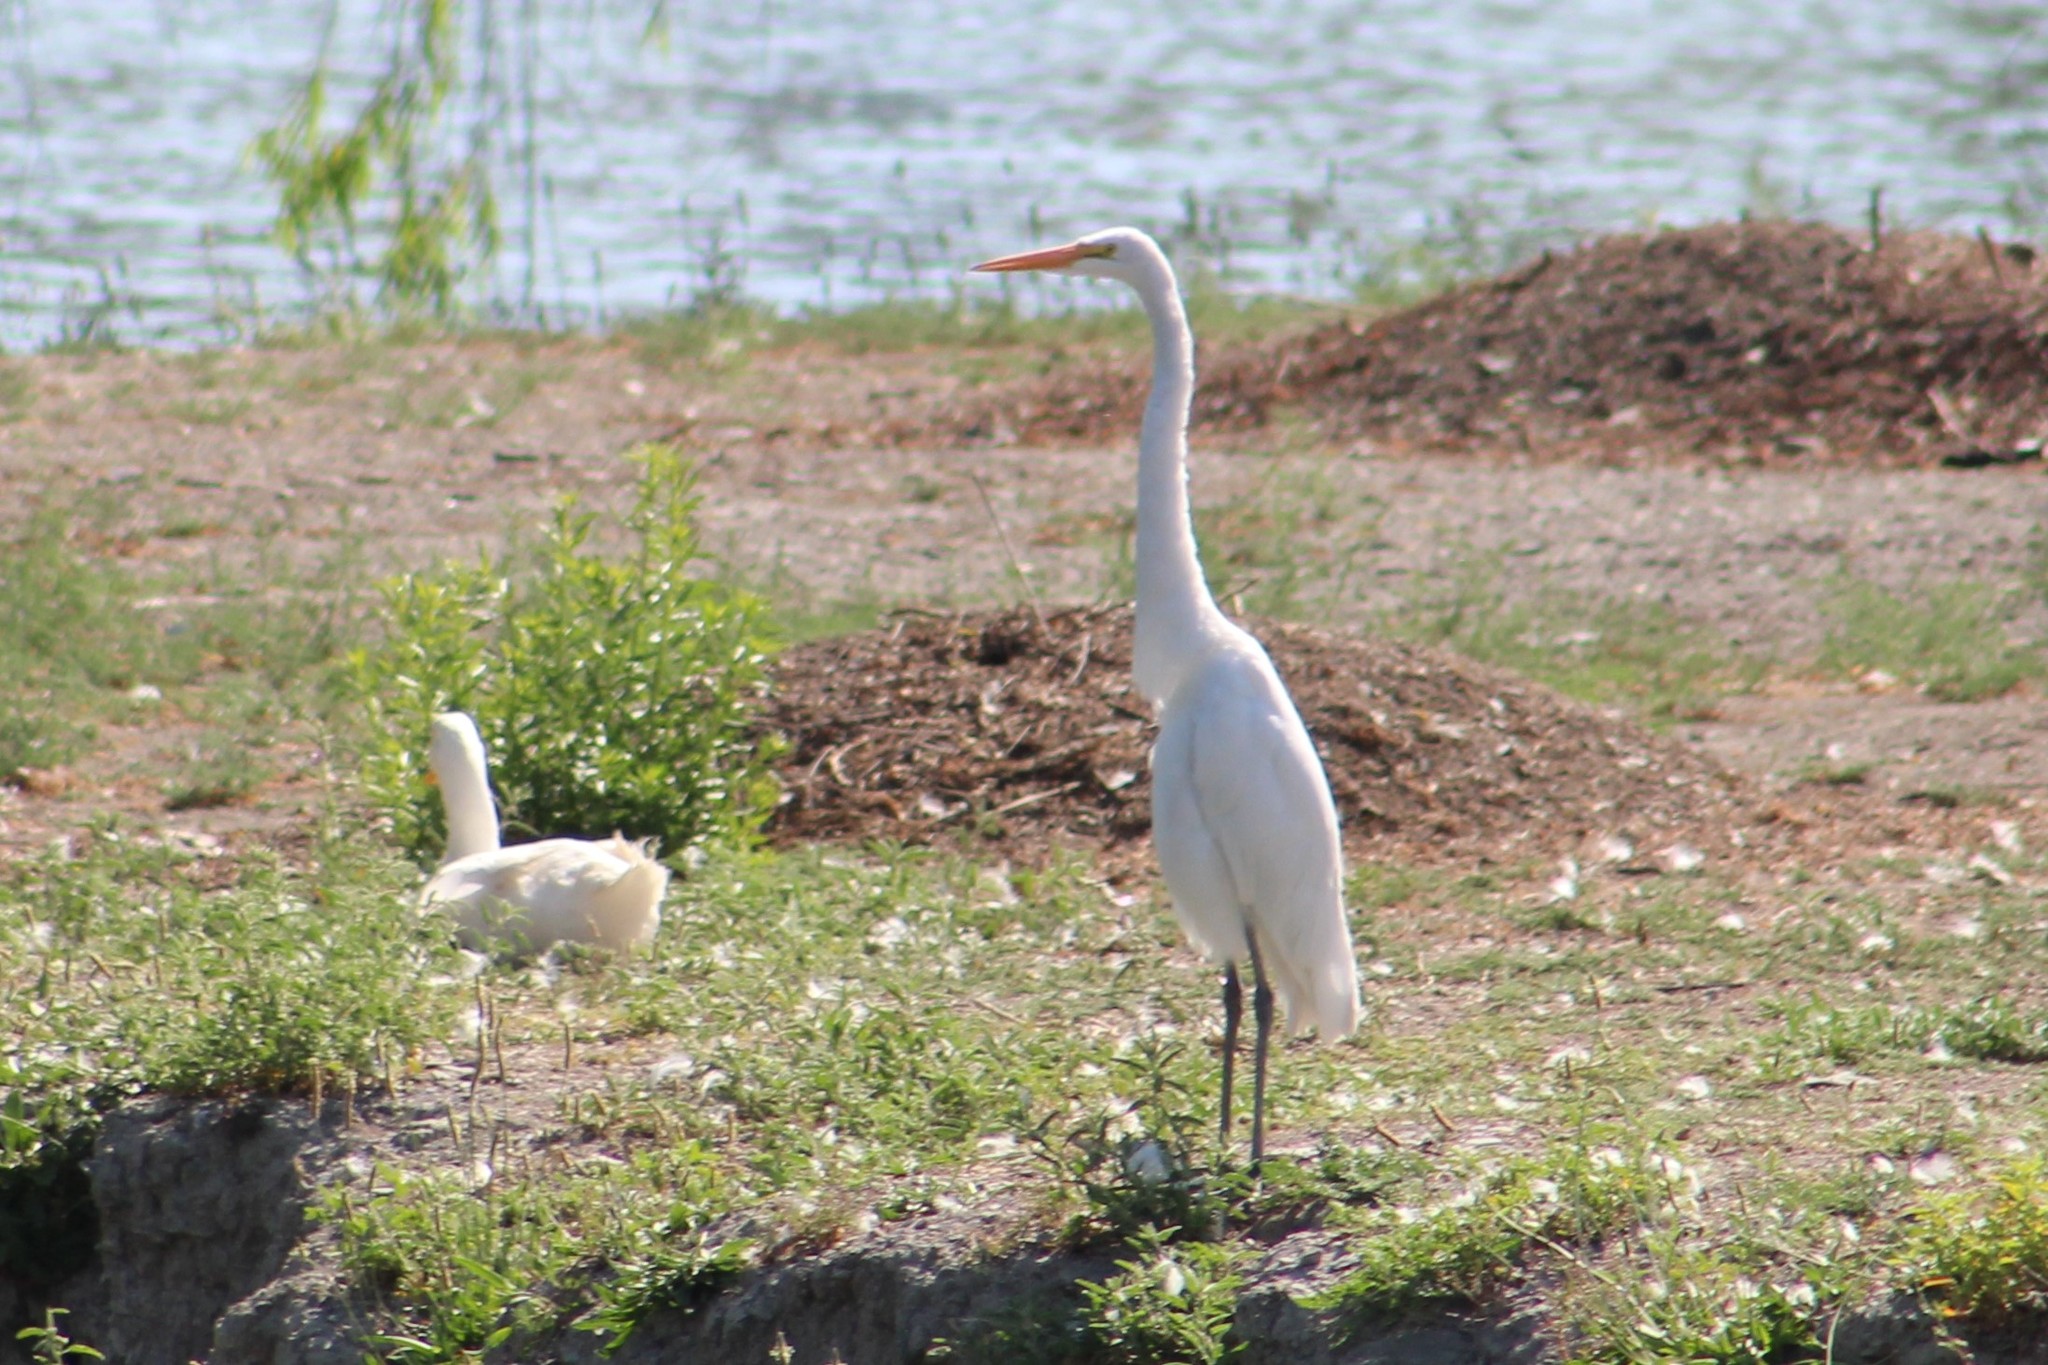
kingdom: Animalia
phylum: Chordata
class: Aves
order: Pelecaniformes
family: Ardeidae
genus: Ardea
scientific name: Ardea alba
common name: Great egret
